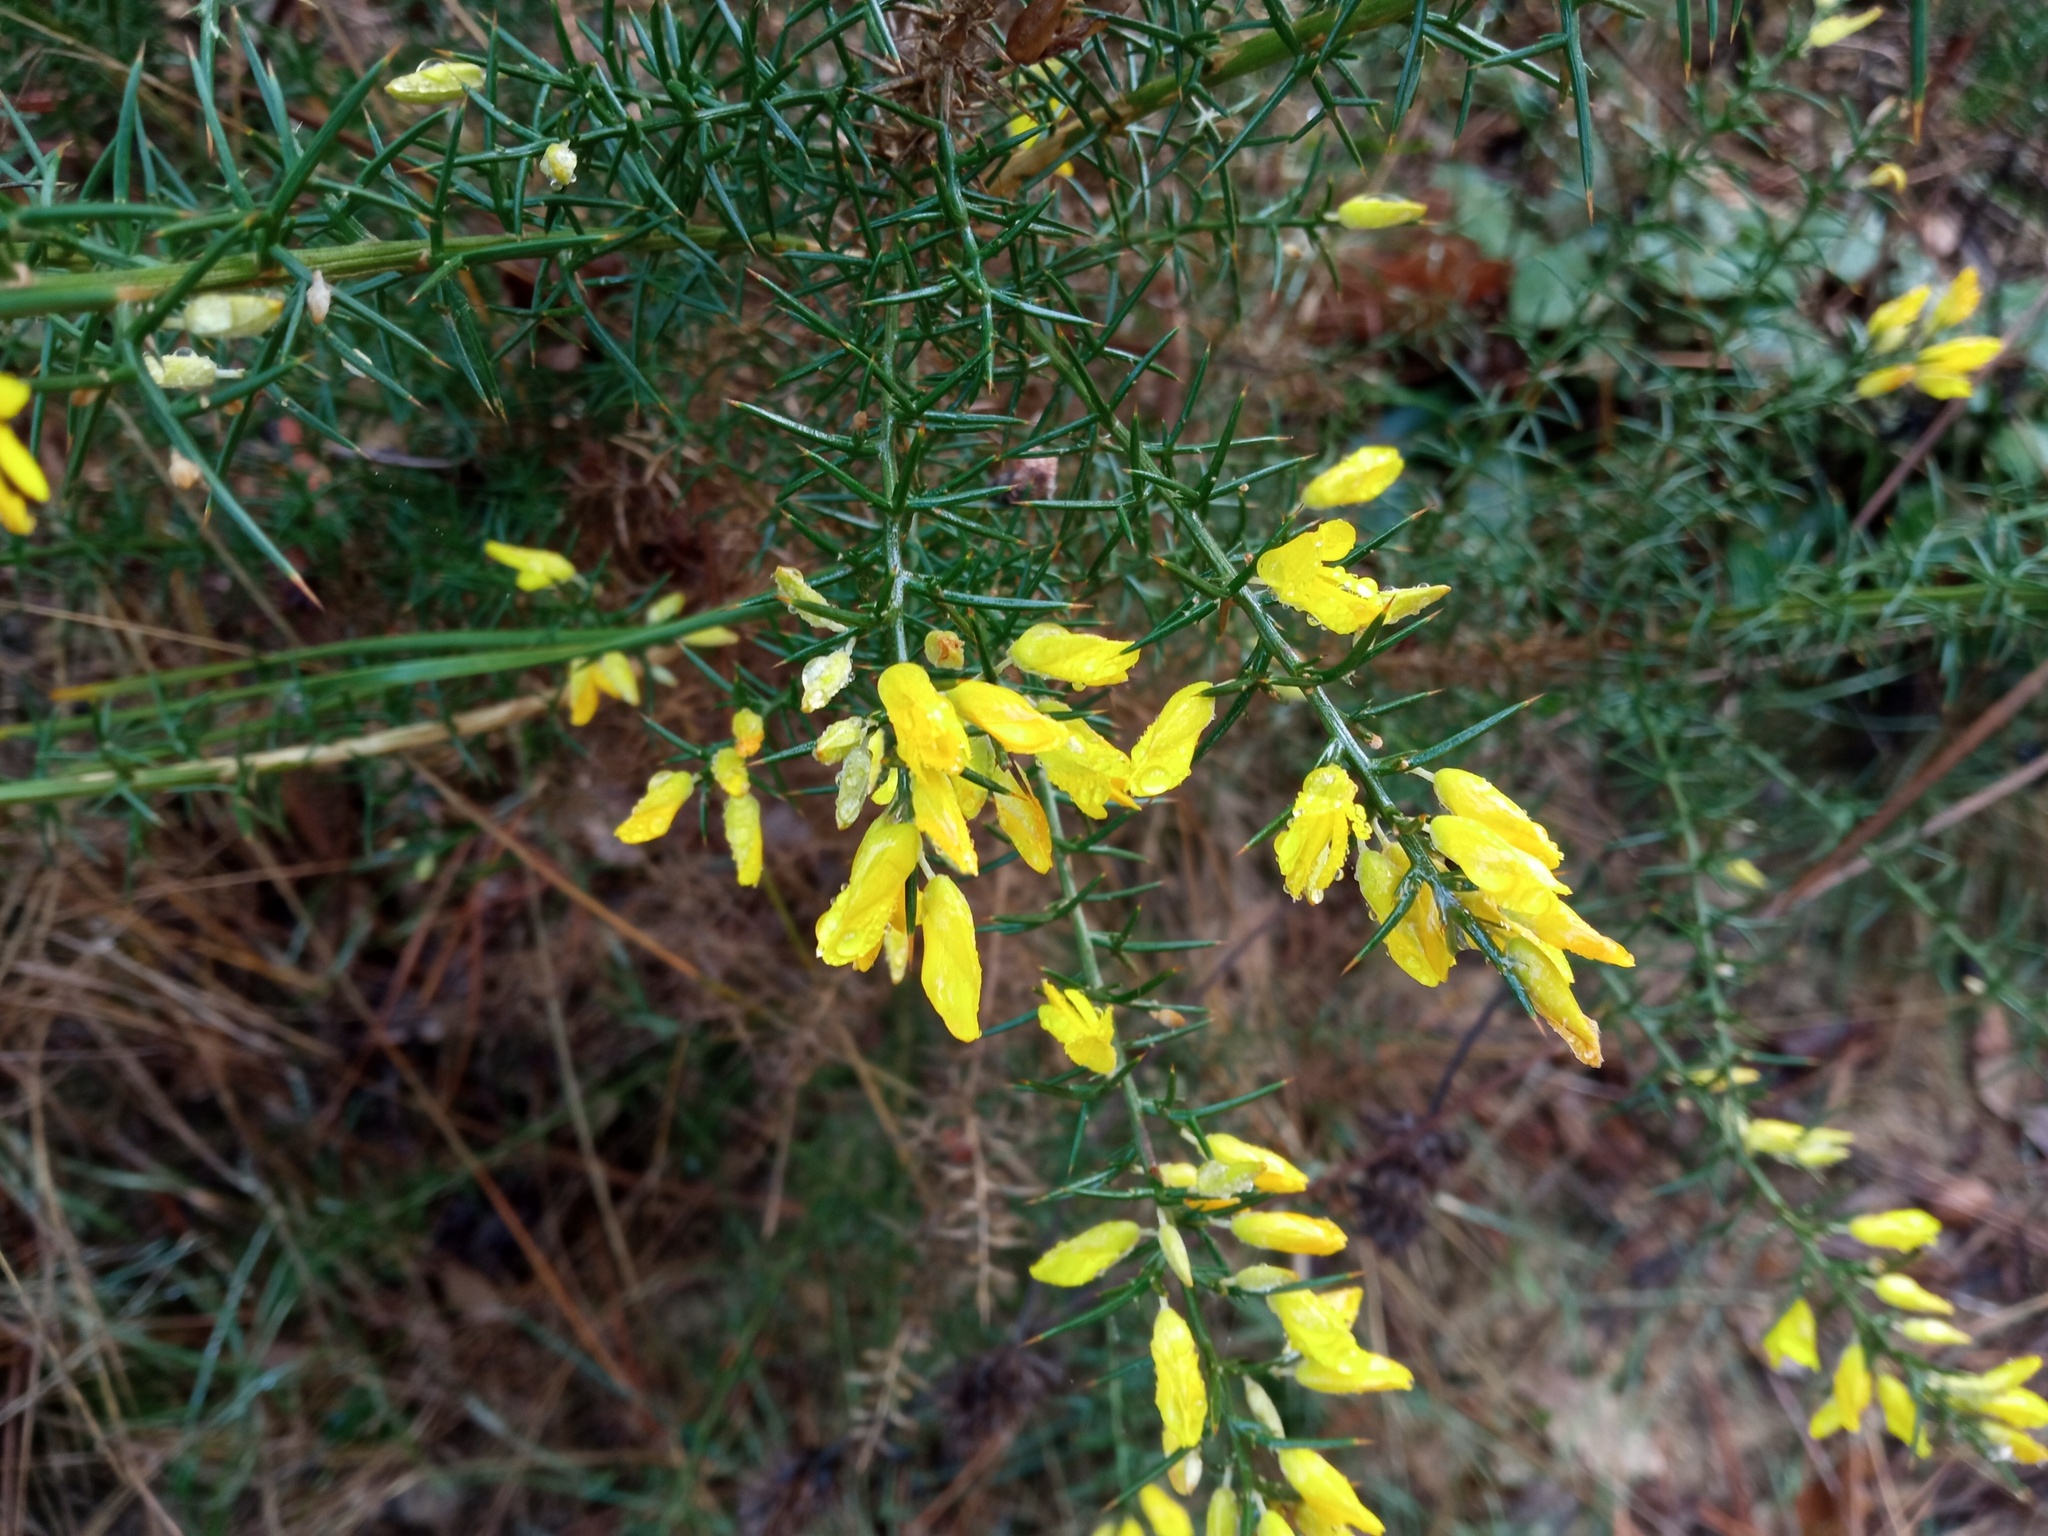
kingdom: Plantae
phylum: Tracheophyta
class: Magnoliopsida
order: Fabales
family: Fabaceae
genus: Ulex
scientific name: Ulex parviflorus
